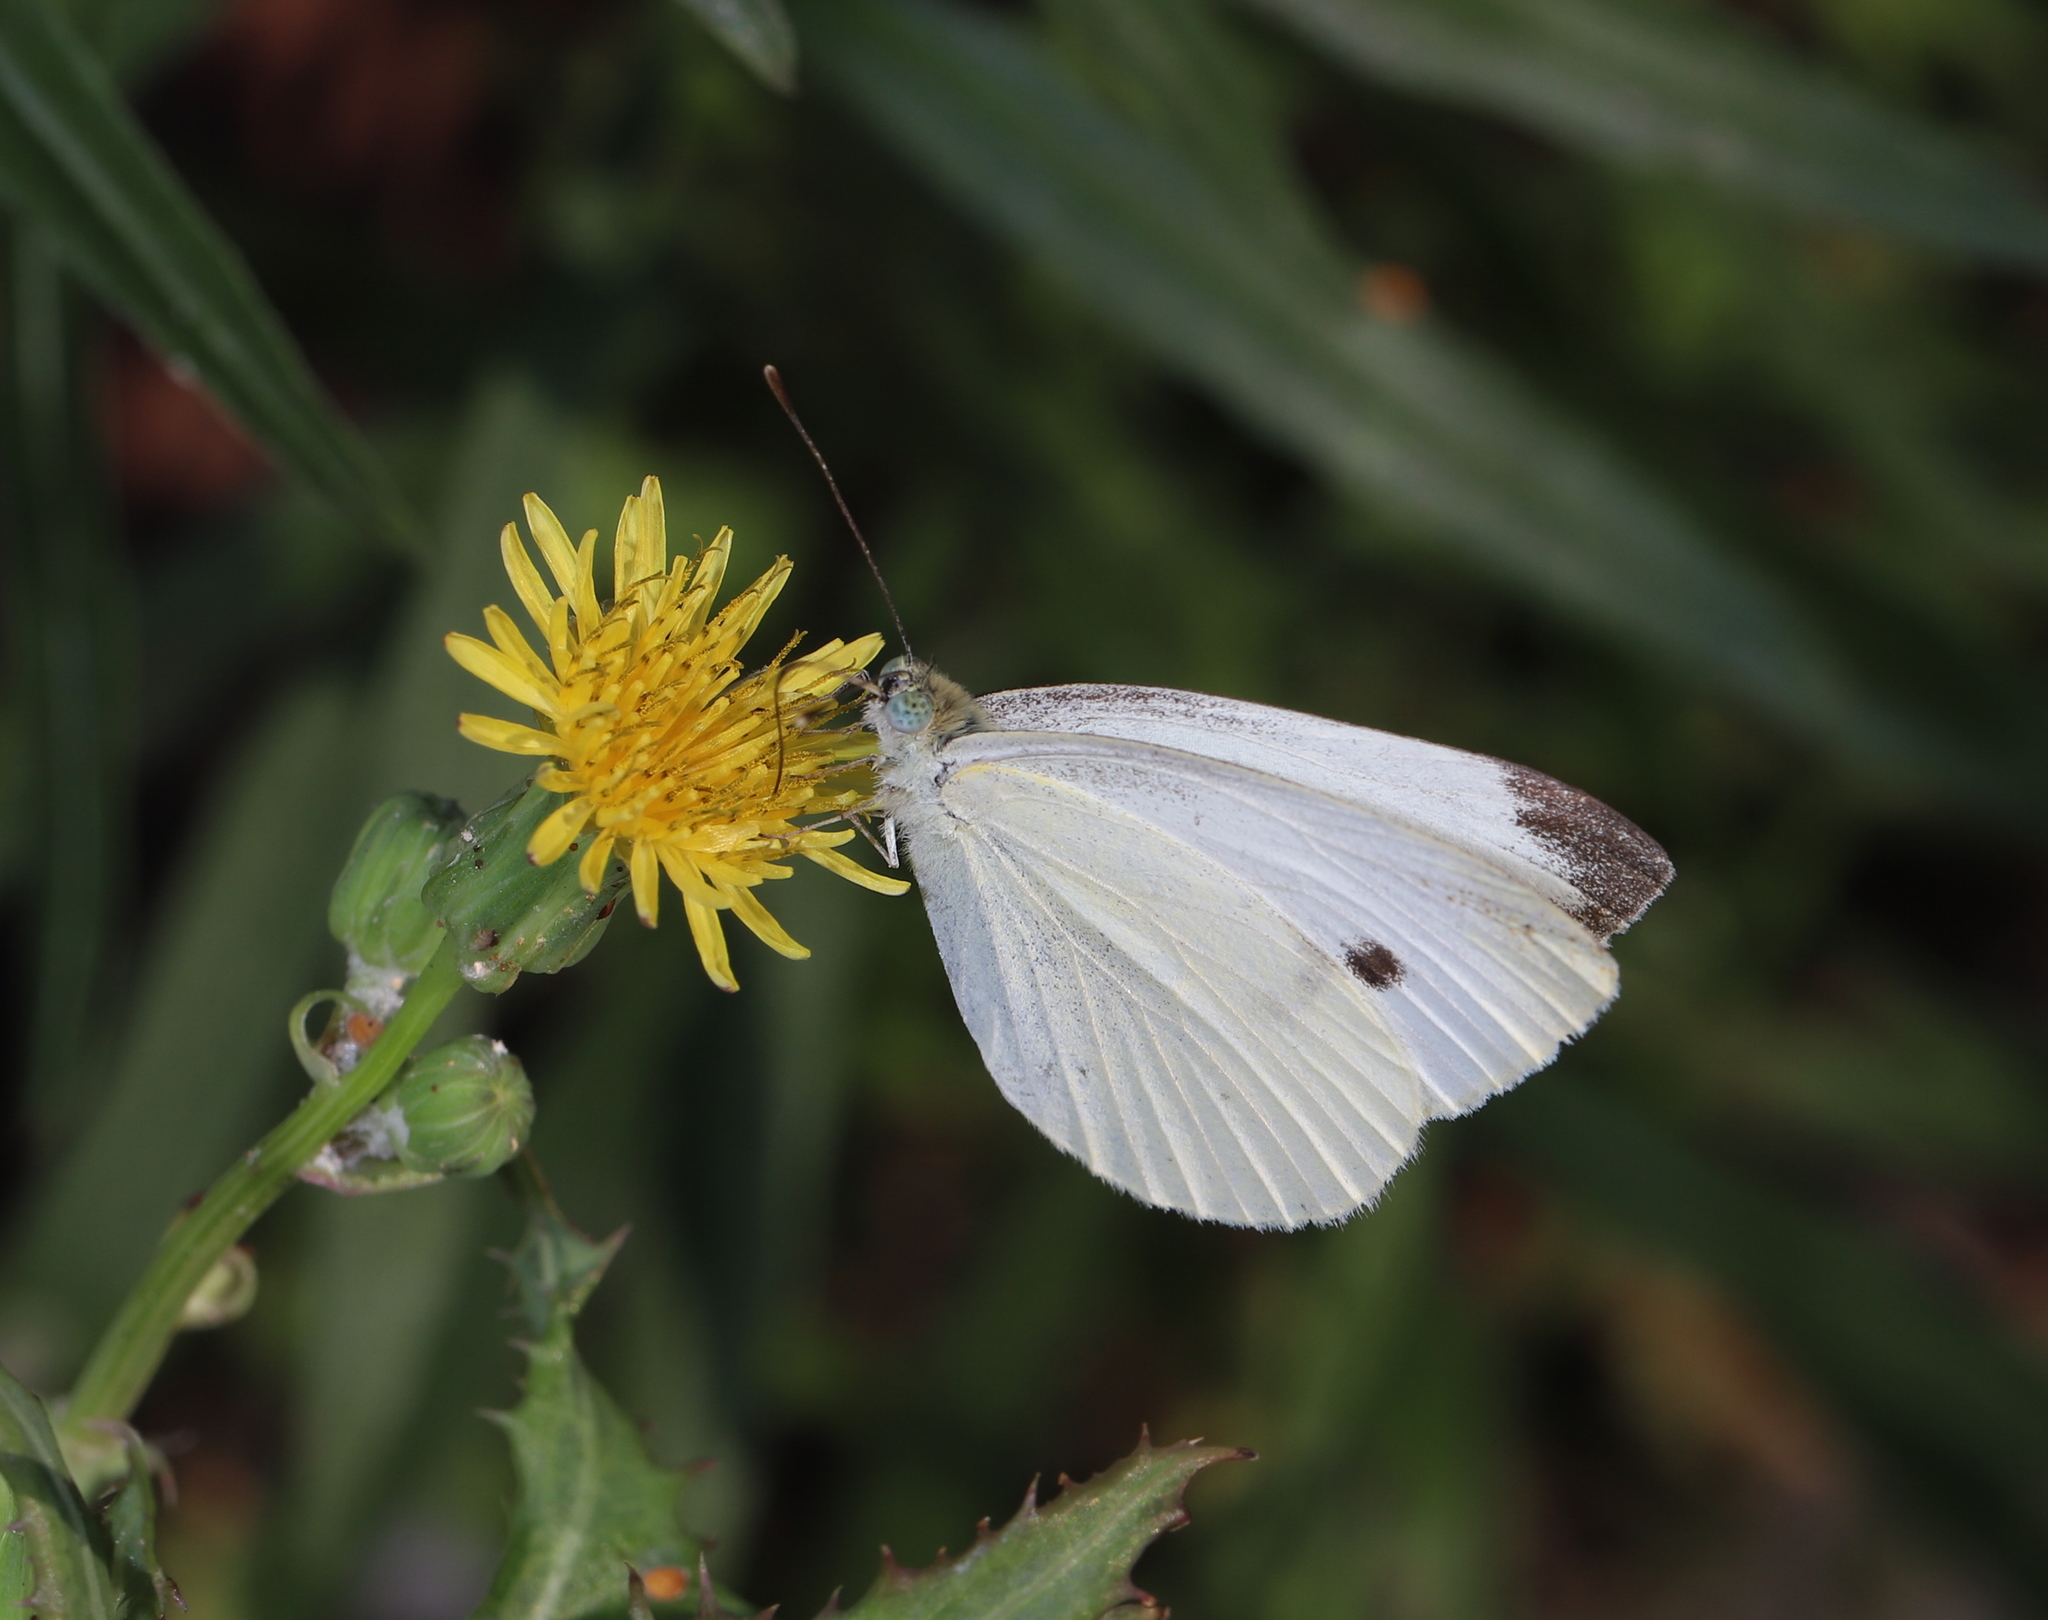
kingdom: Animalia
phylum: Arthropoda
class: Insecta
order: Lepidoptera
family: Pieridae
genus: Pieris
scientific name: Pieris rapae
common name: Small white
